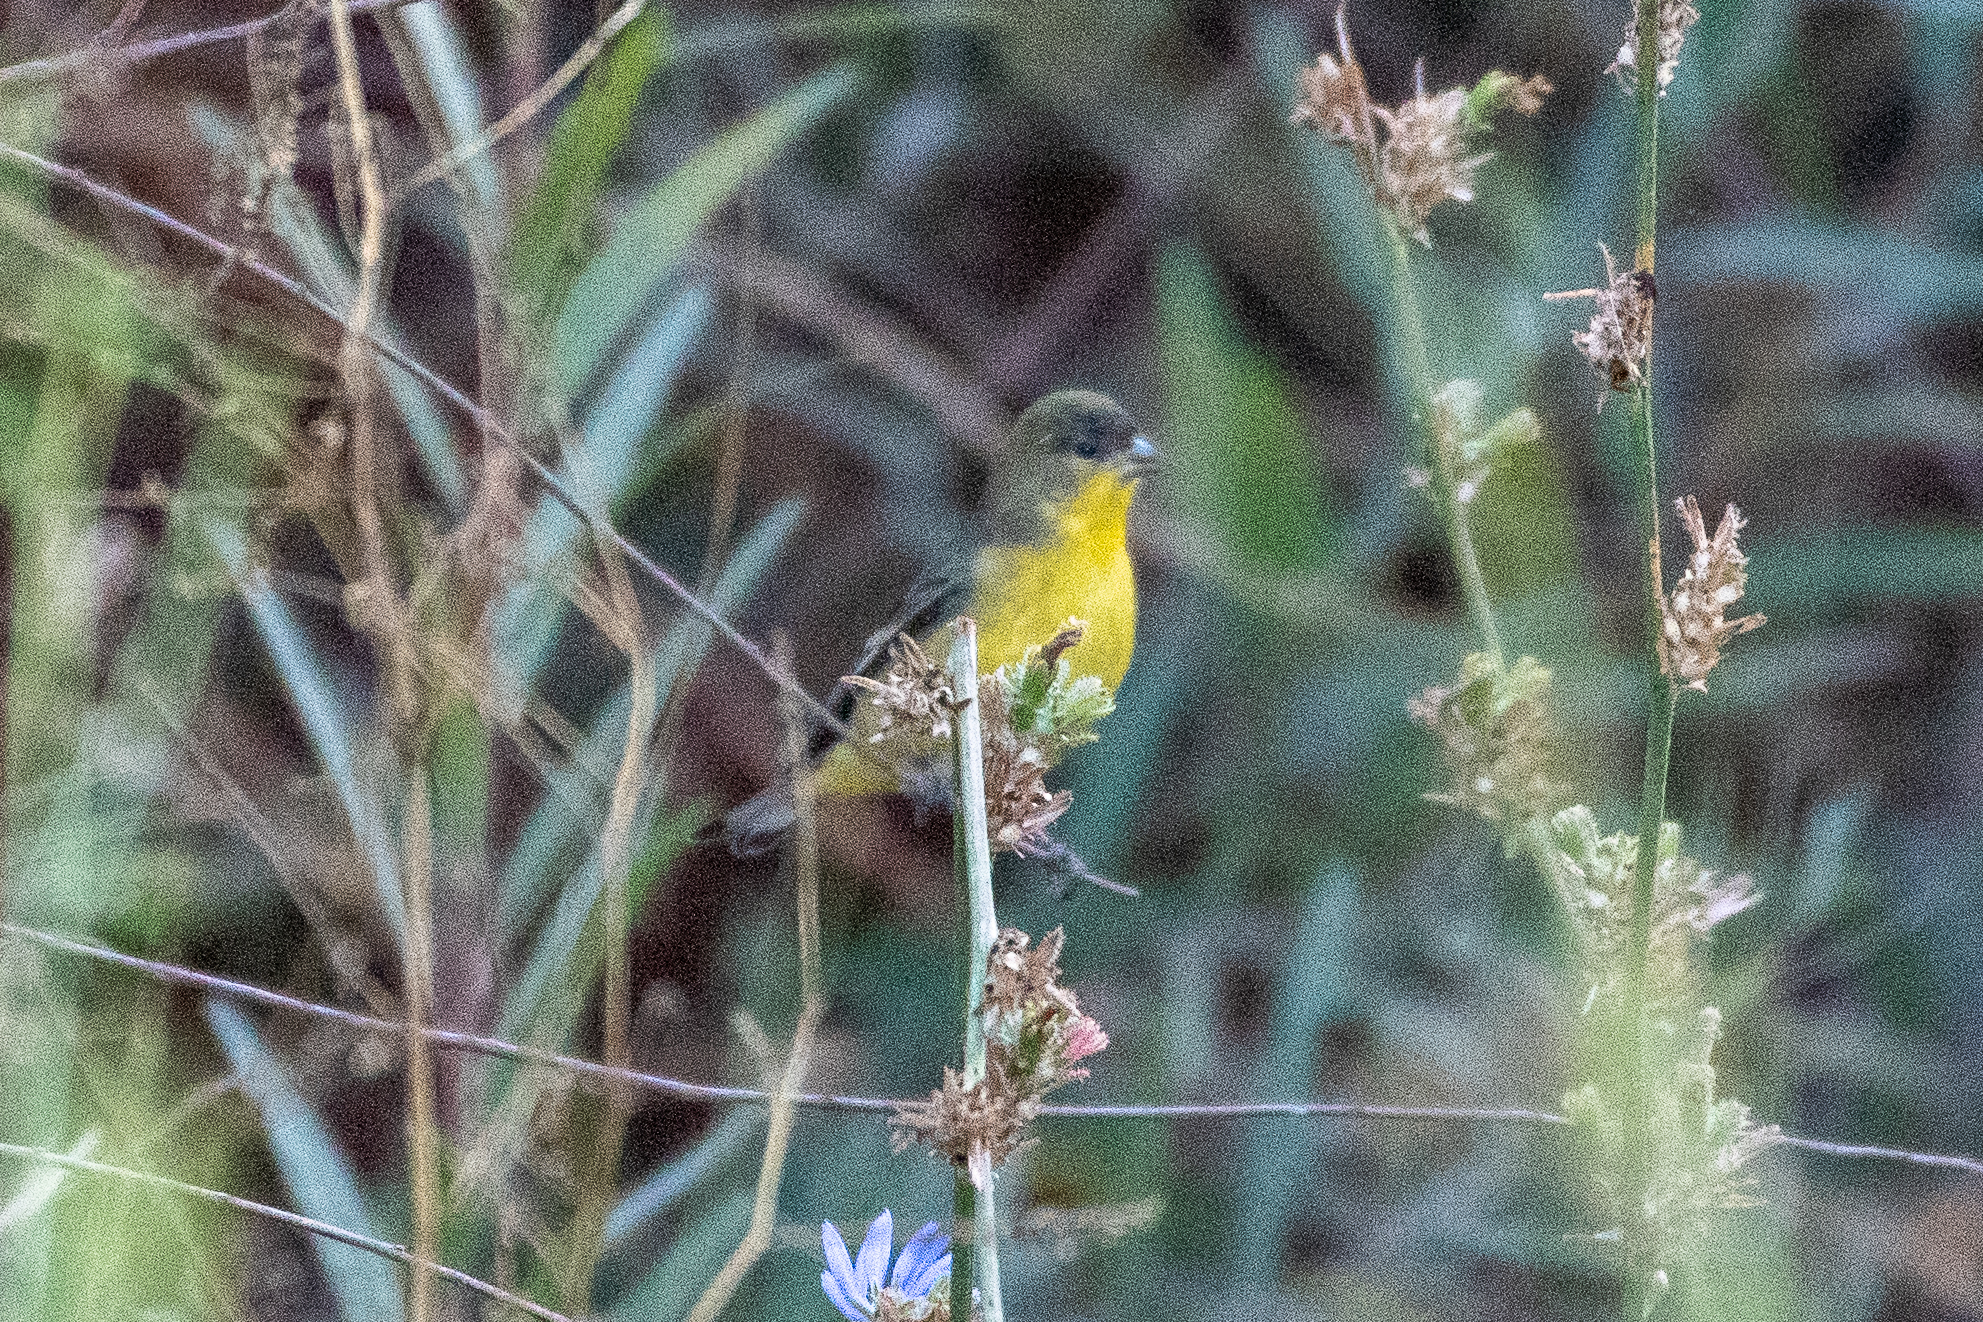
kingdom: Animalia
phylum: Chordata
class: Aves
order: Passeriformes
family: Fringillidae
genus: Spinus
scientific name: Spinus psaltria
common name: Lesser goldfinch
